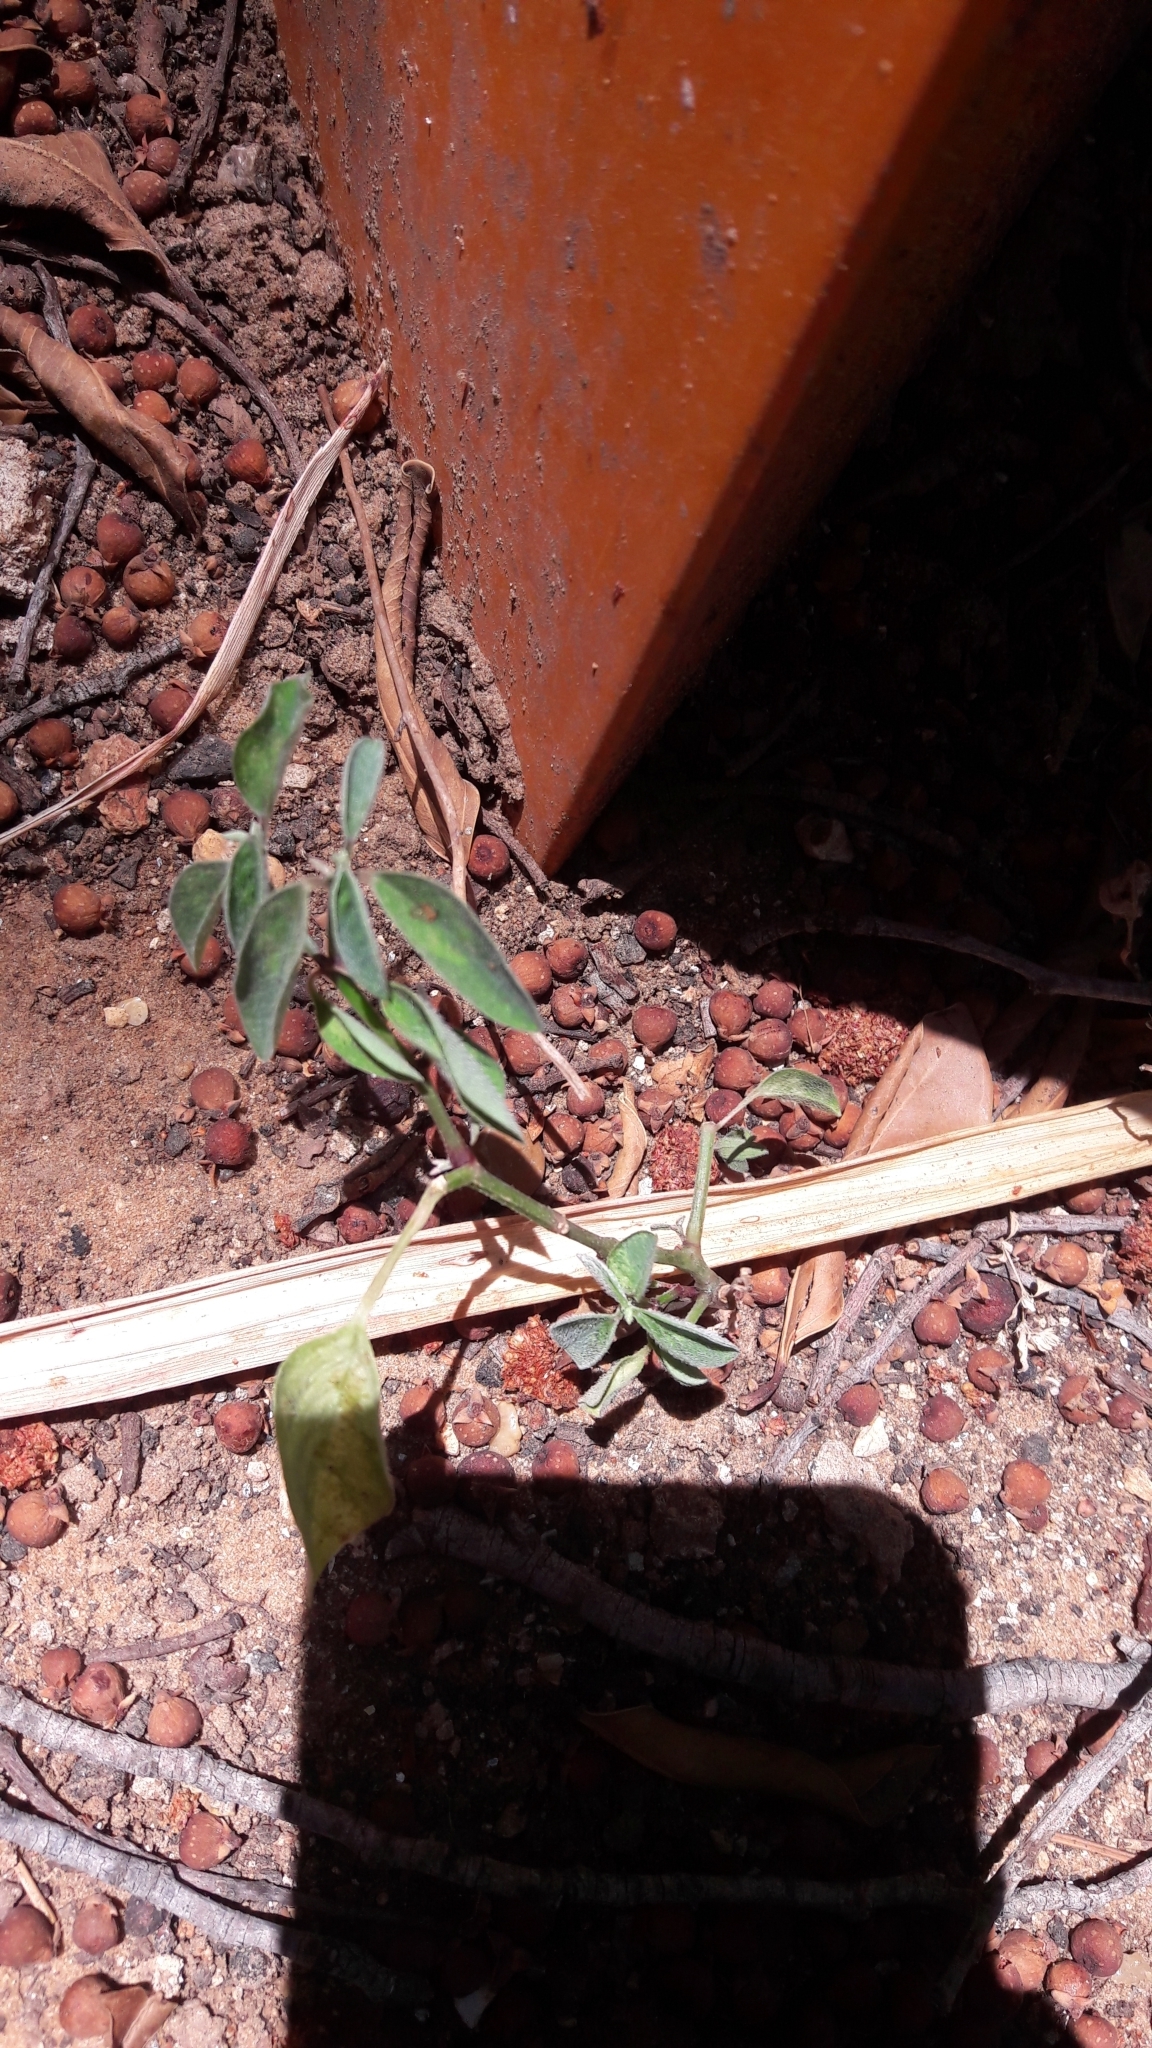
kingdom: Plantae
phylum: Tracheophyta
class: Magnoliopsida
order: Malpighiales
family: Euphorbiaceae
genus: Euphorbia
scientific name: Euphorbia graminea
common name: Grassleaf spurge
